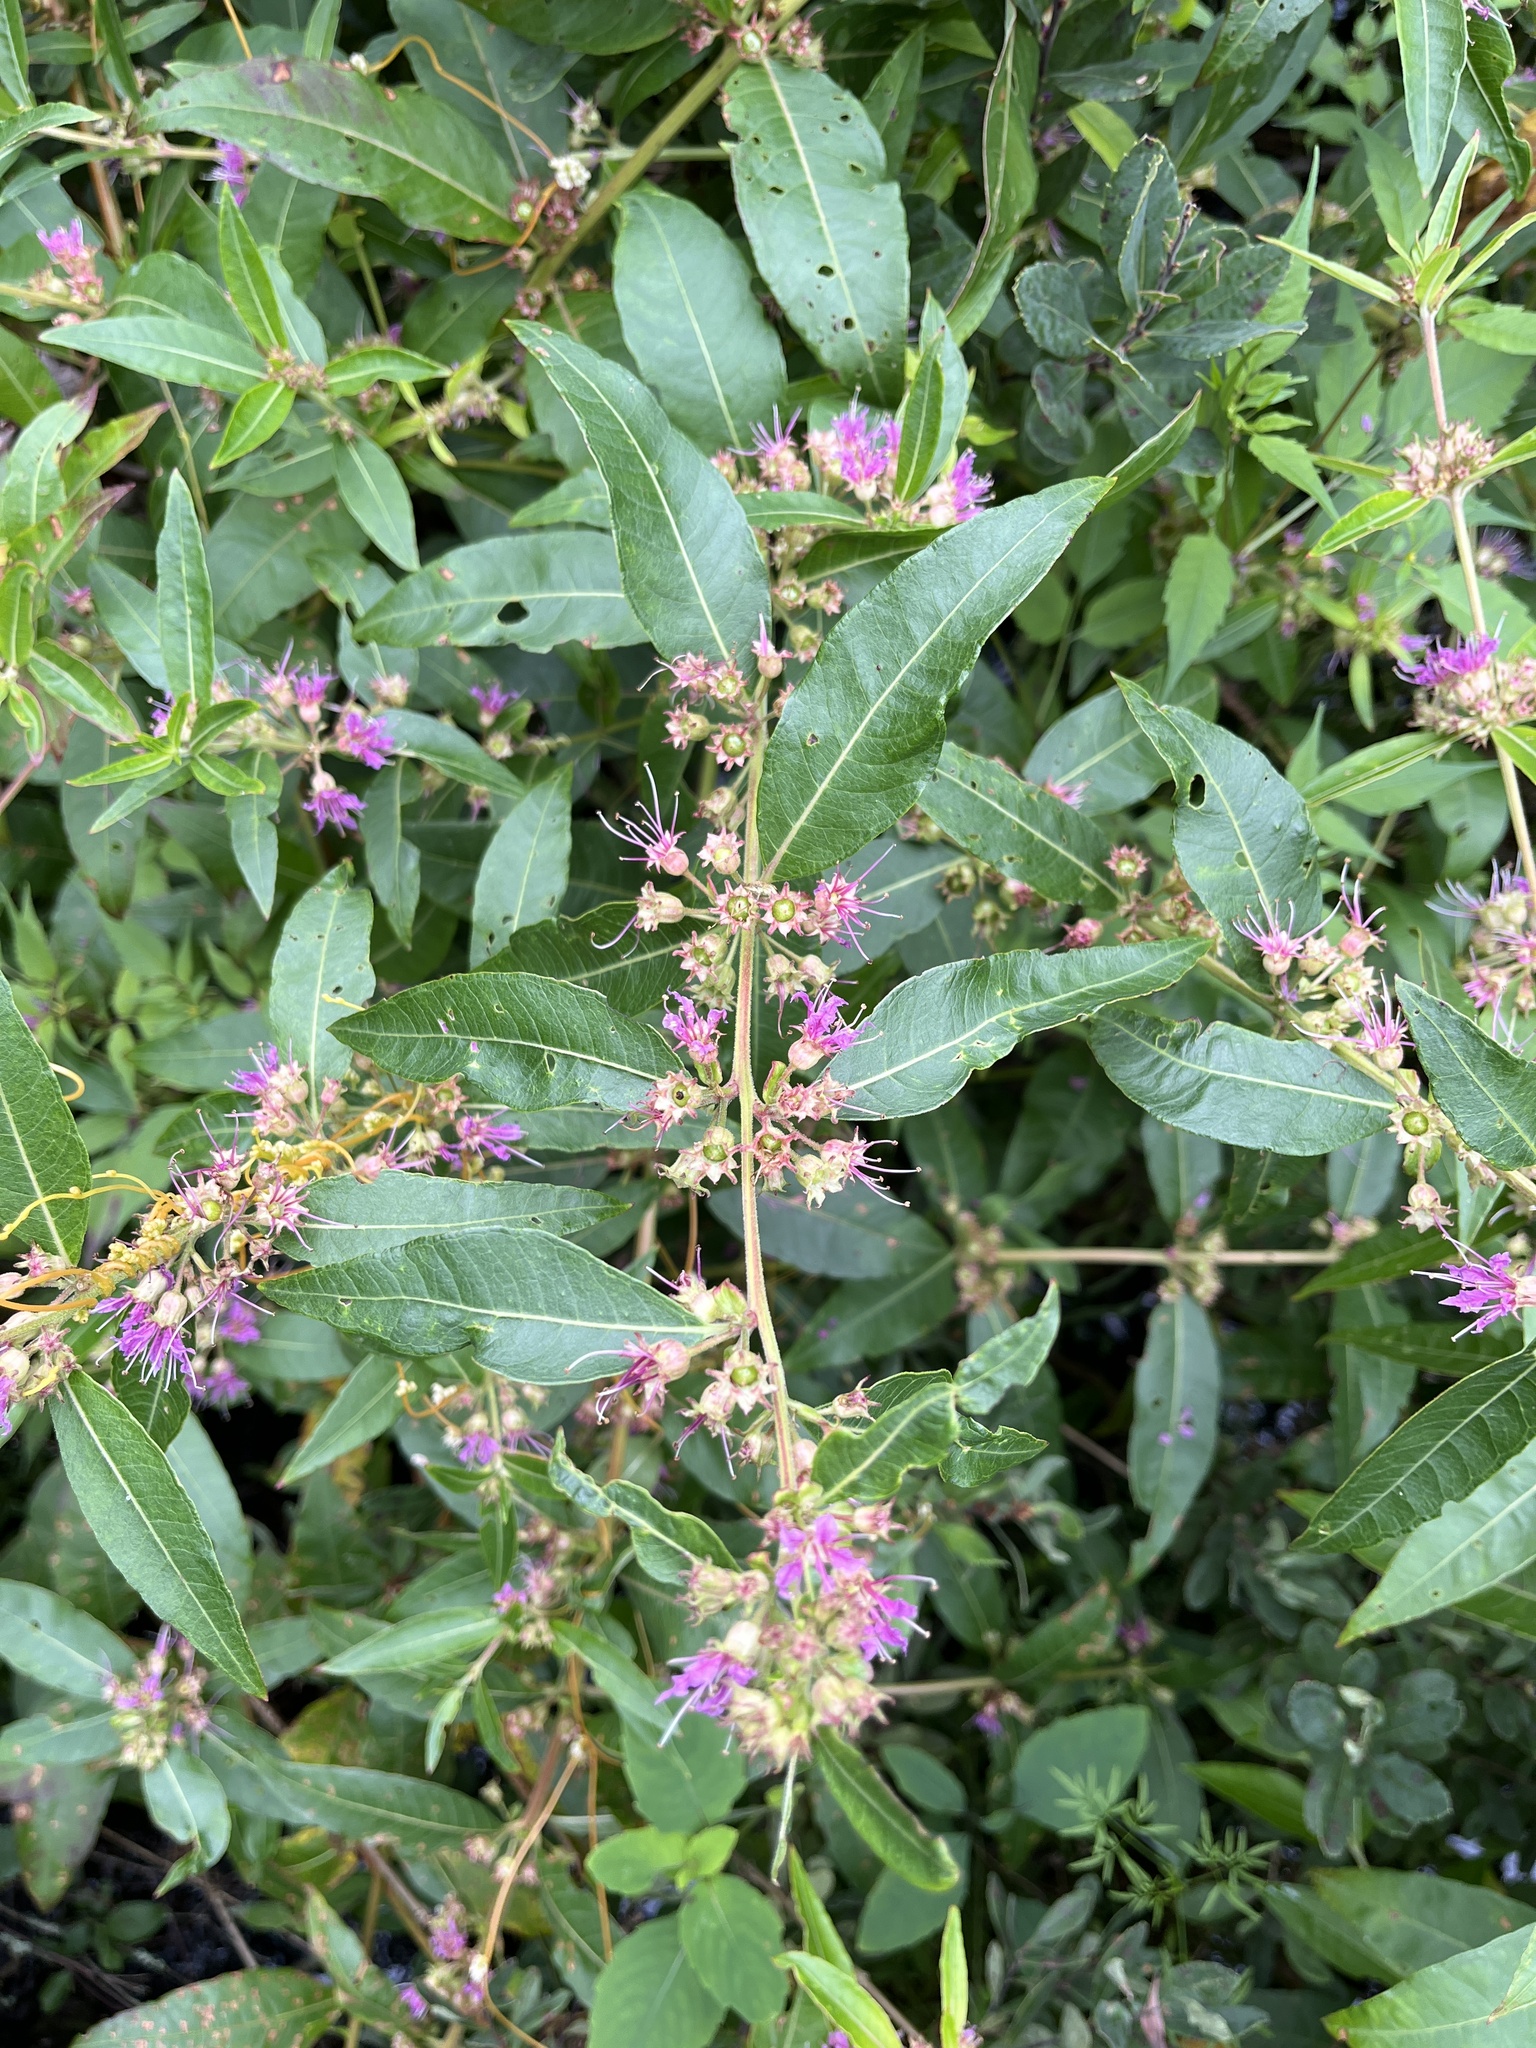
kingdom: Plantae
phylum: Tracheophyta
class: Magnoliopsida
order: Myrtales
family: Lythraceae
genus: Decodon
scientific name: Decodon verticillatus
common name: Hairy swamp loosestrife
